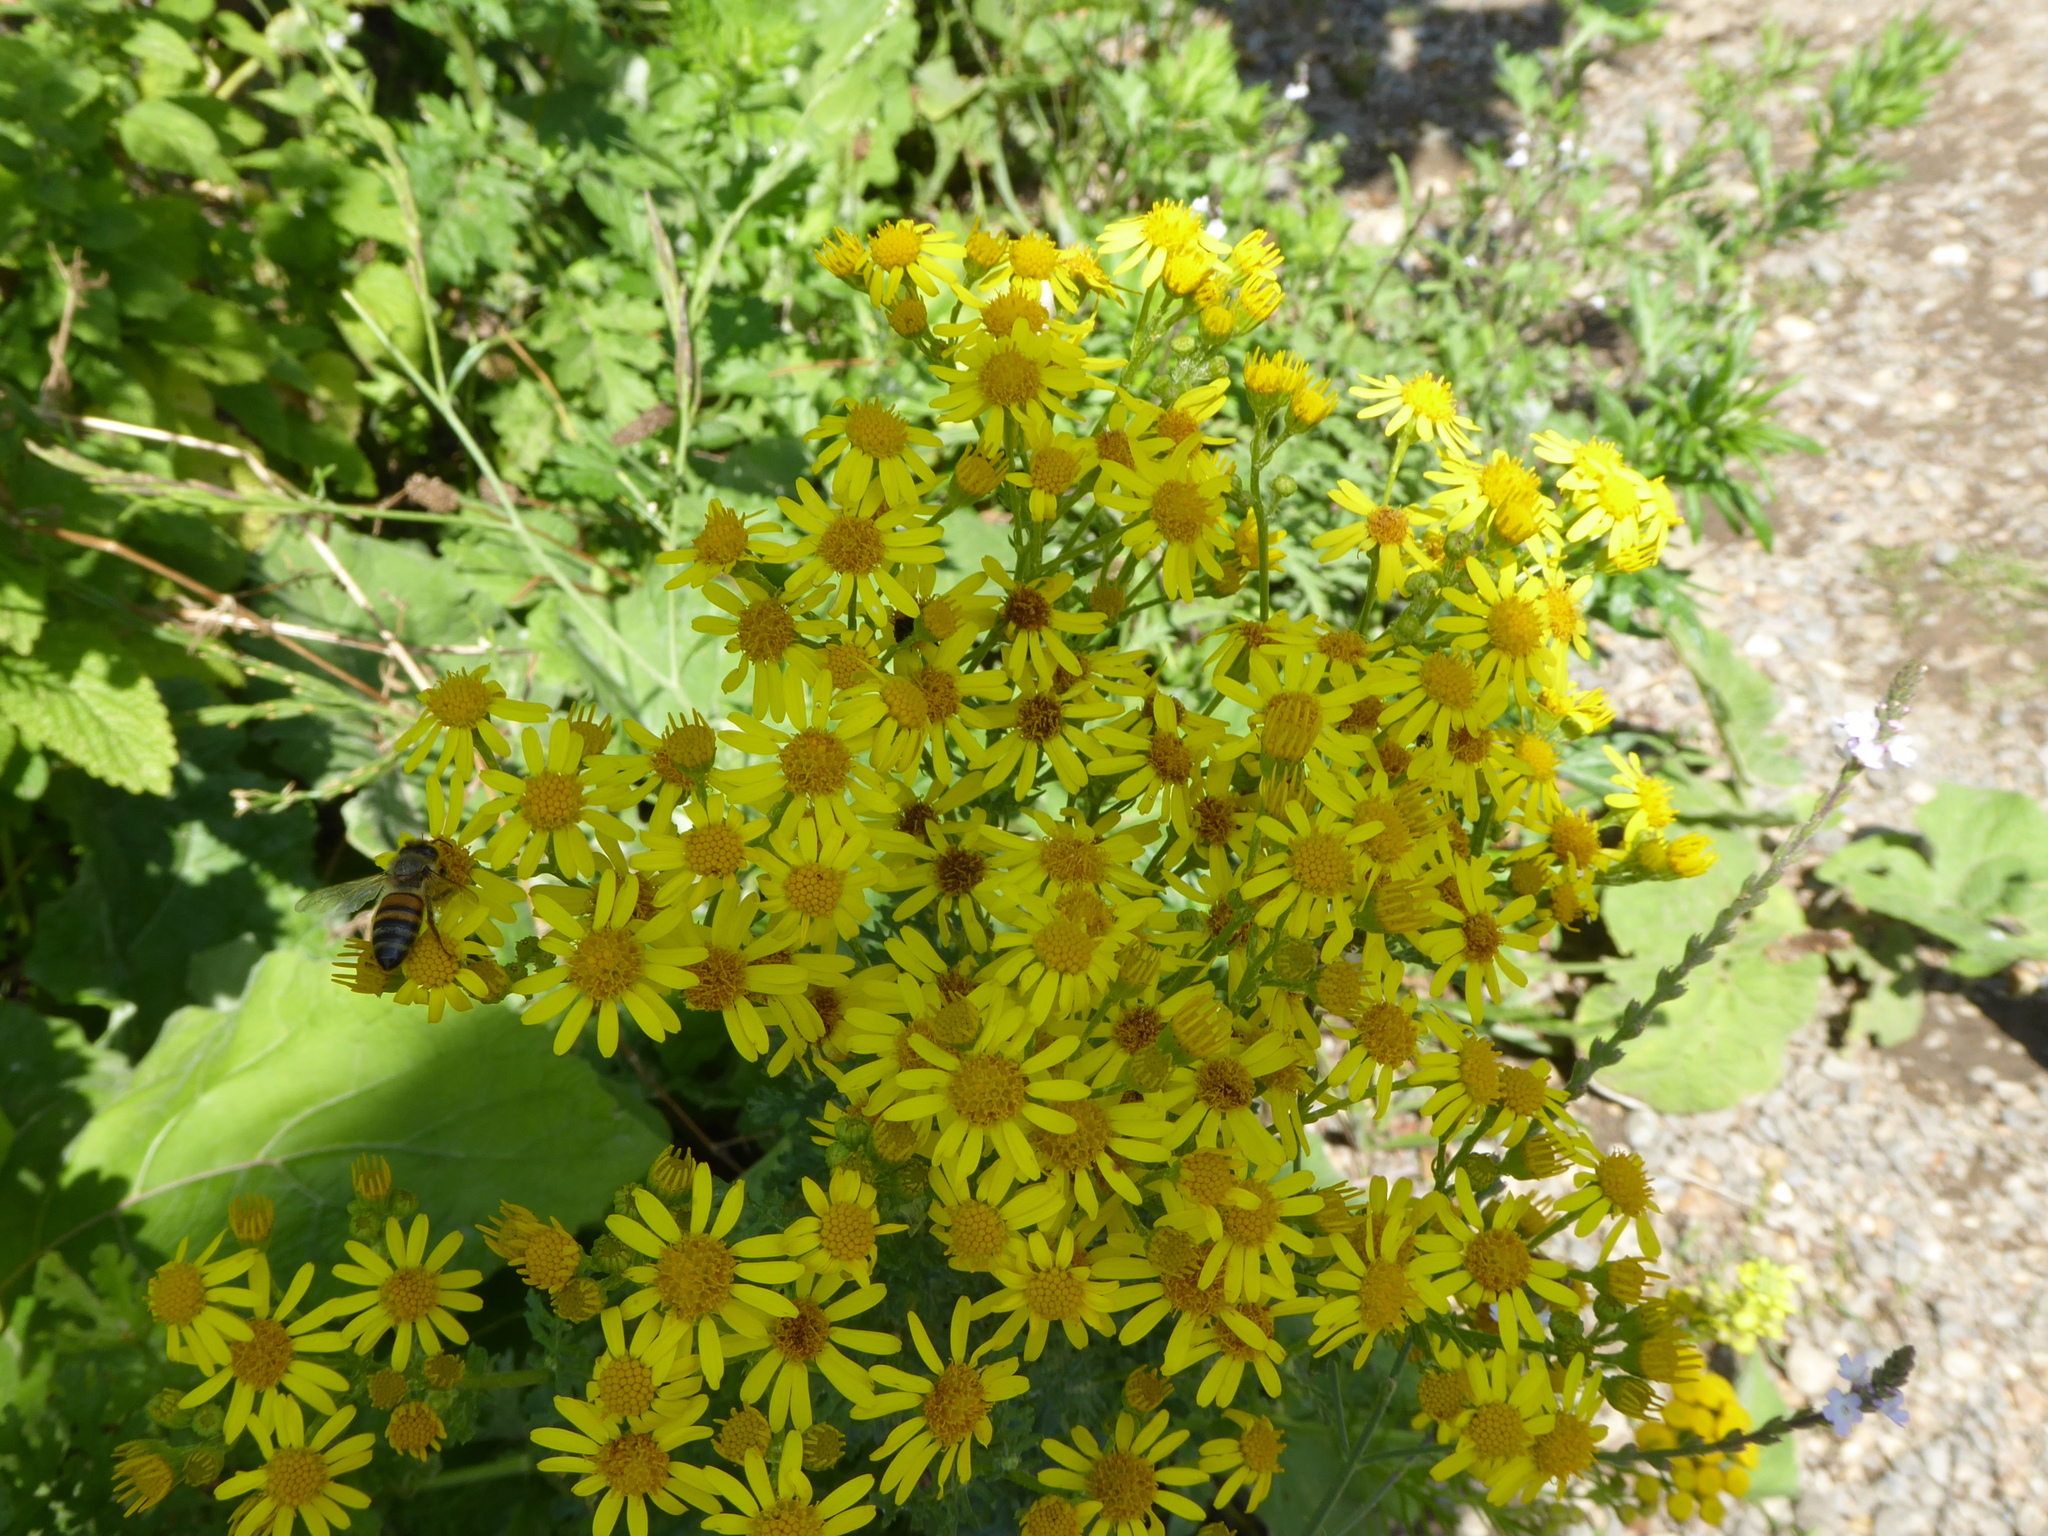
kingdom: Plantae
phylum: Tracheophyta
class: Magnoliopsida
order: Asterales
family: Asteraceae
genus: Jacobaea
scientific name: Jacobaea vulgaris
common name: Stinking willie
